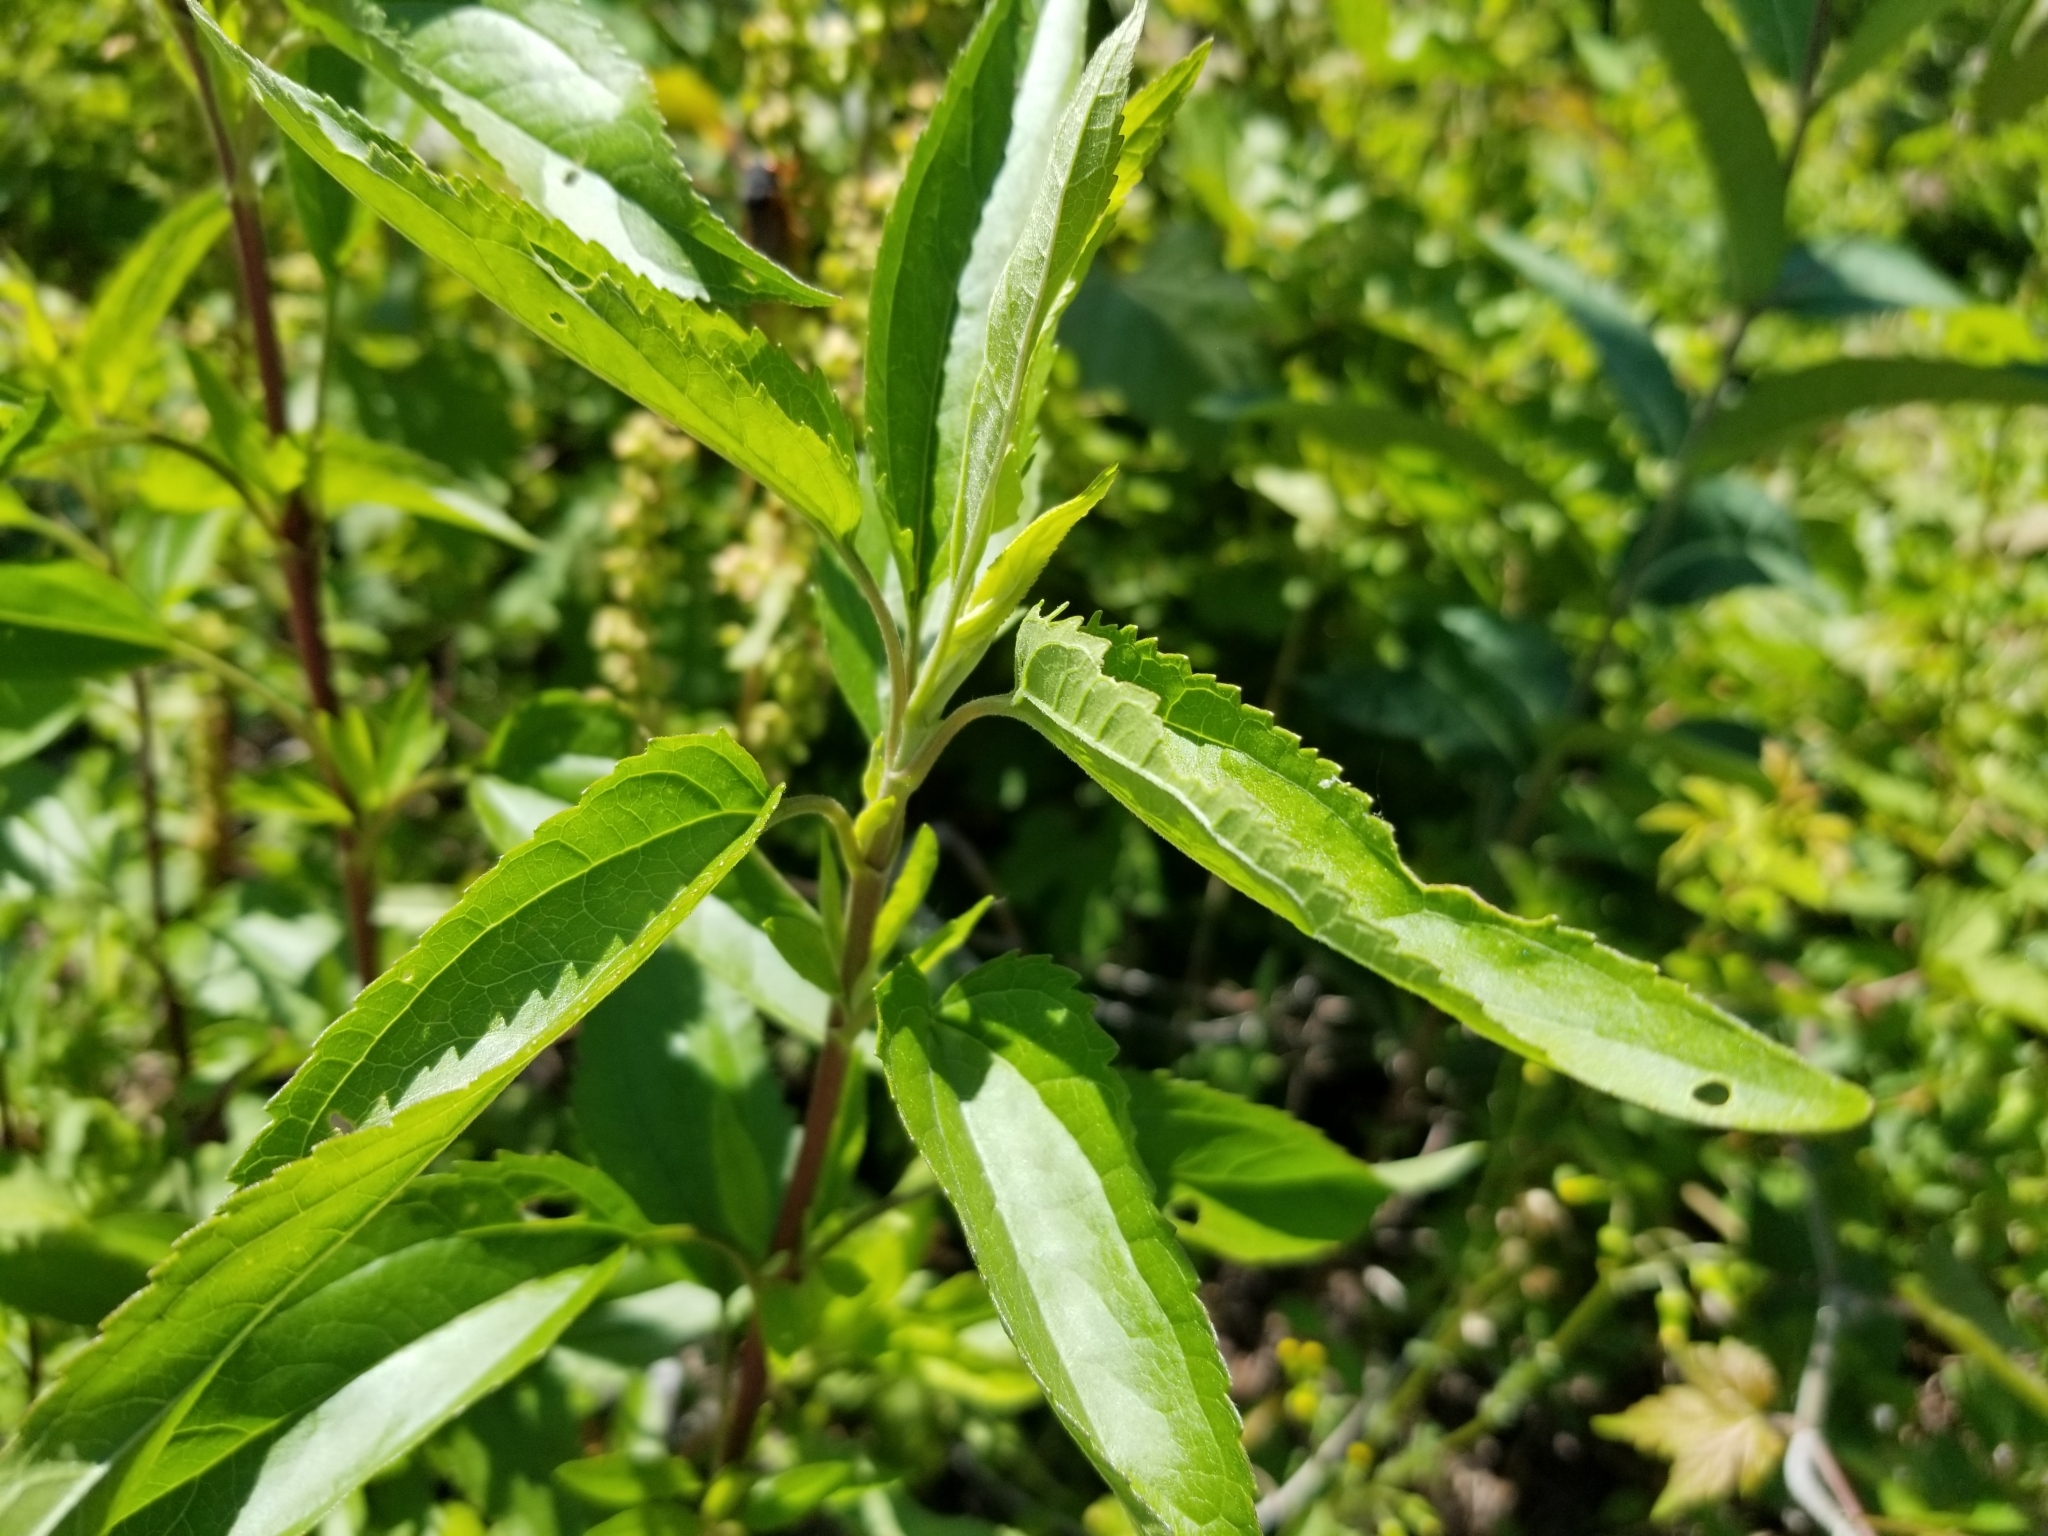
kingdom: Plantae
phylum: Tracheophyta
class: Magnoliopsida
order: Asterales
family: Asteraceae
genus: Eupatorium
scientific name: Eupatorium serotinum
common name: Late boneset
